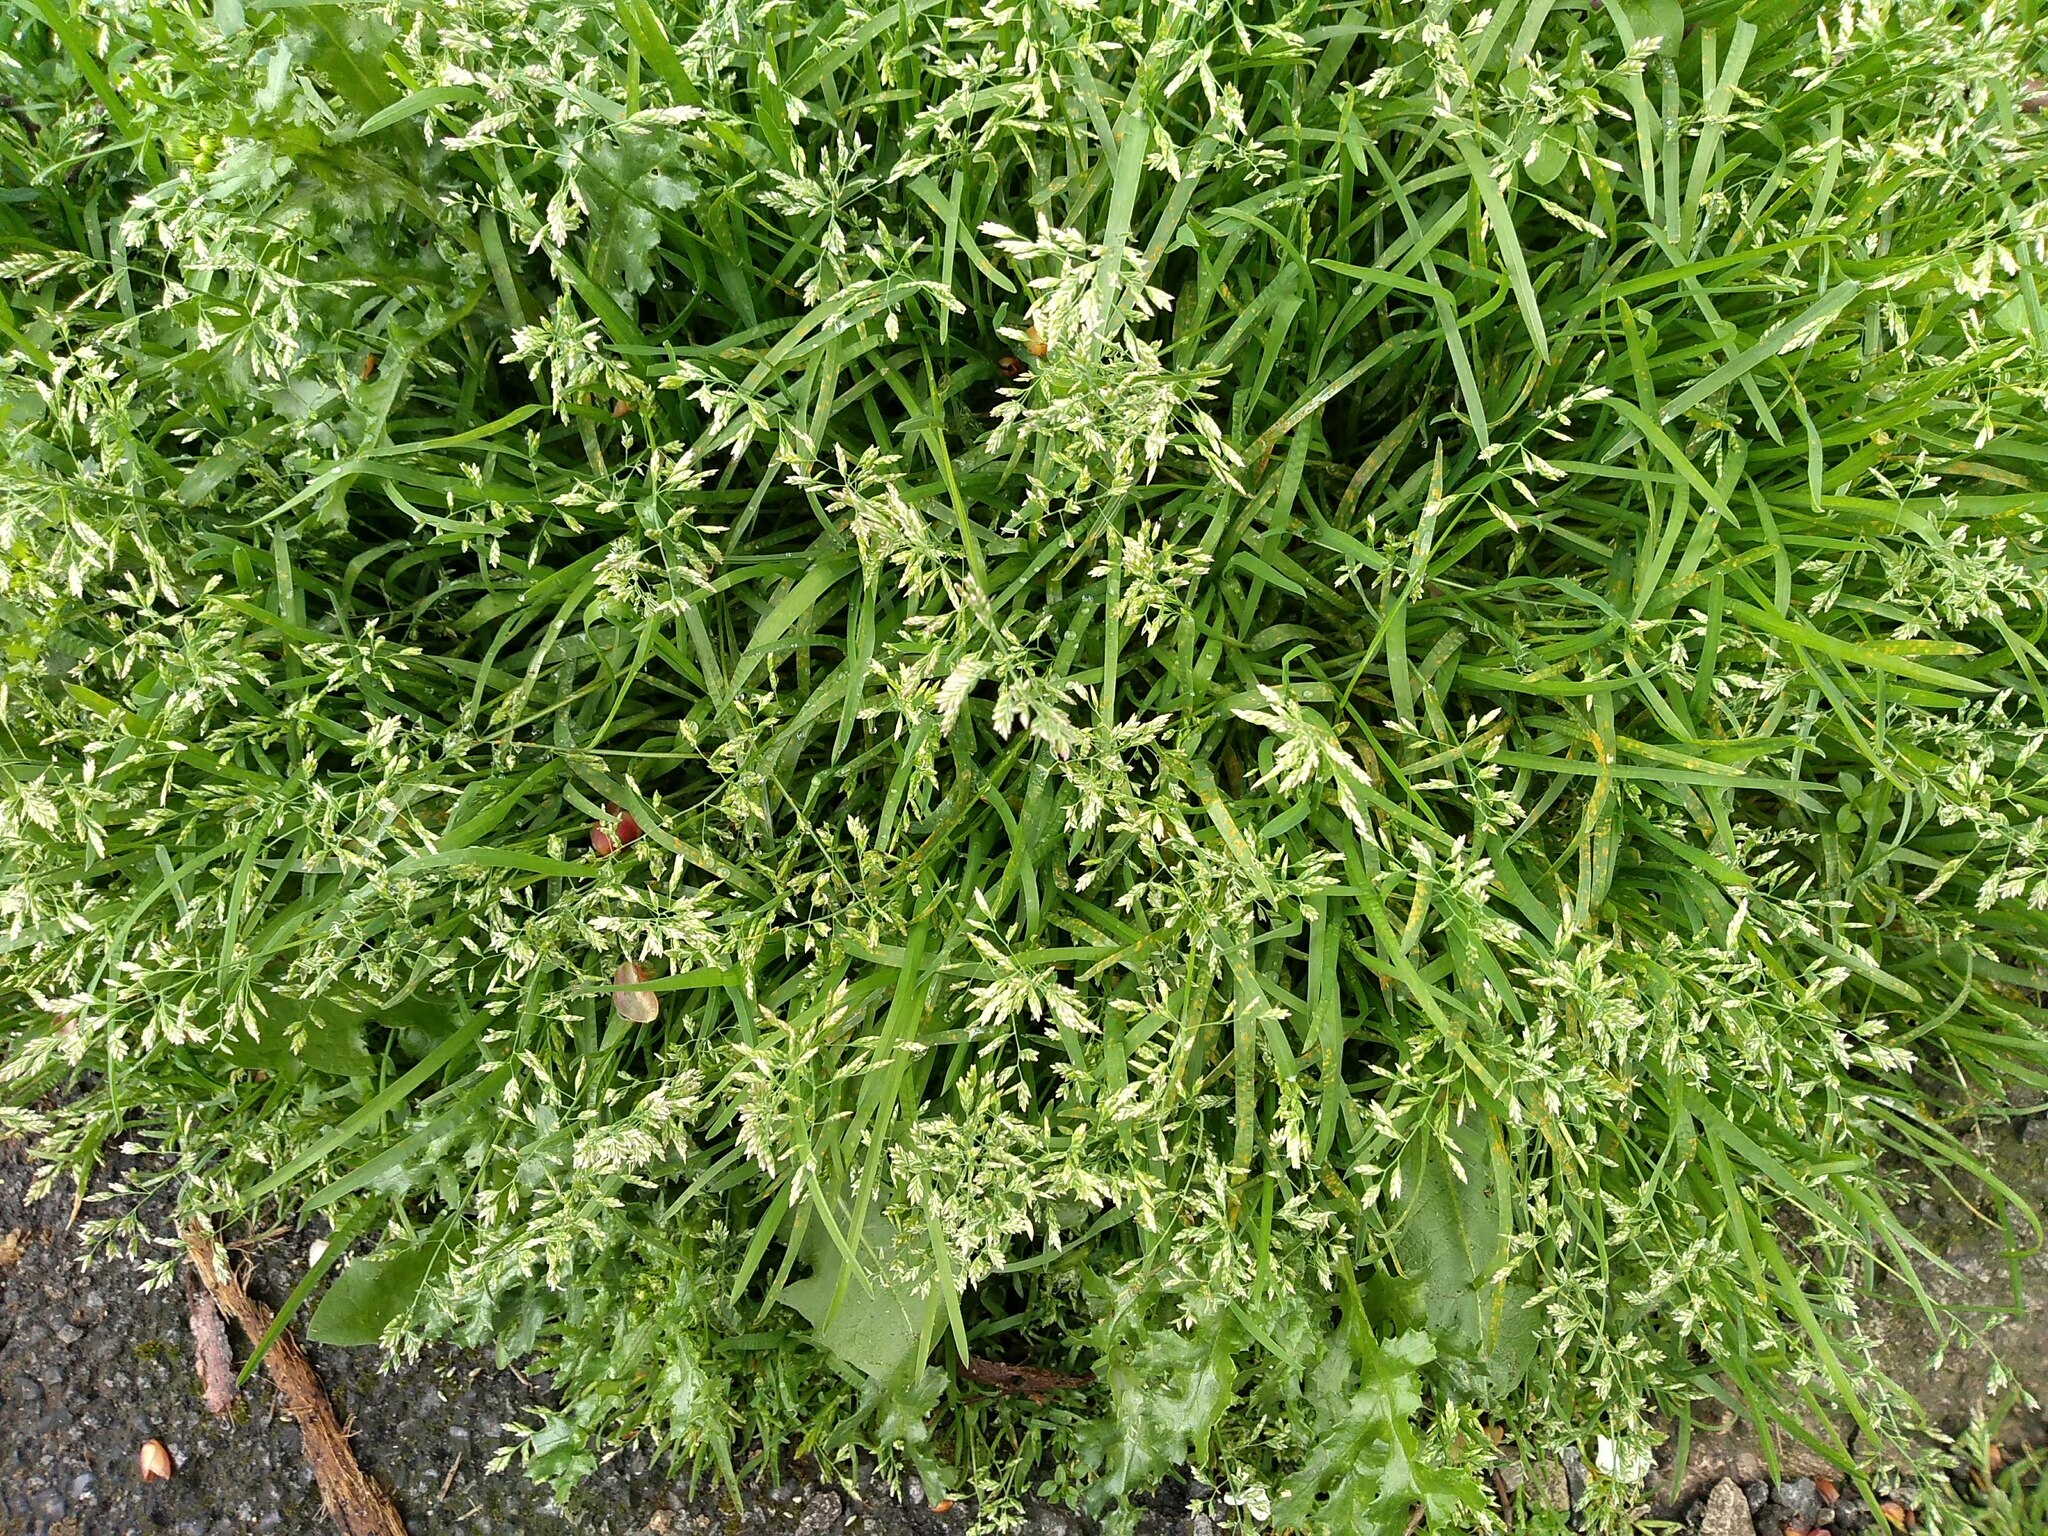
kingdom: Plantae
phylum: Tracheophyta
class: Liliopsida
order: Poales
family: Poaceae
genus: Poa
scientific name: Poa annua
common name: Annual bluegrass
